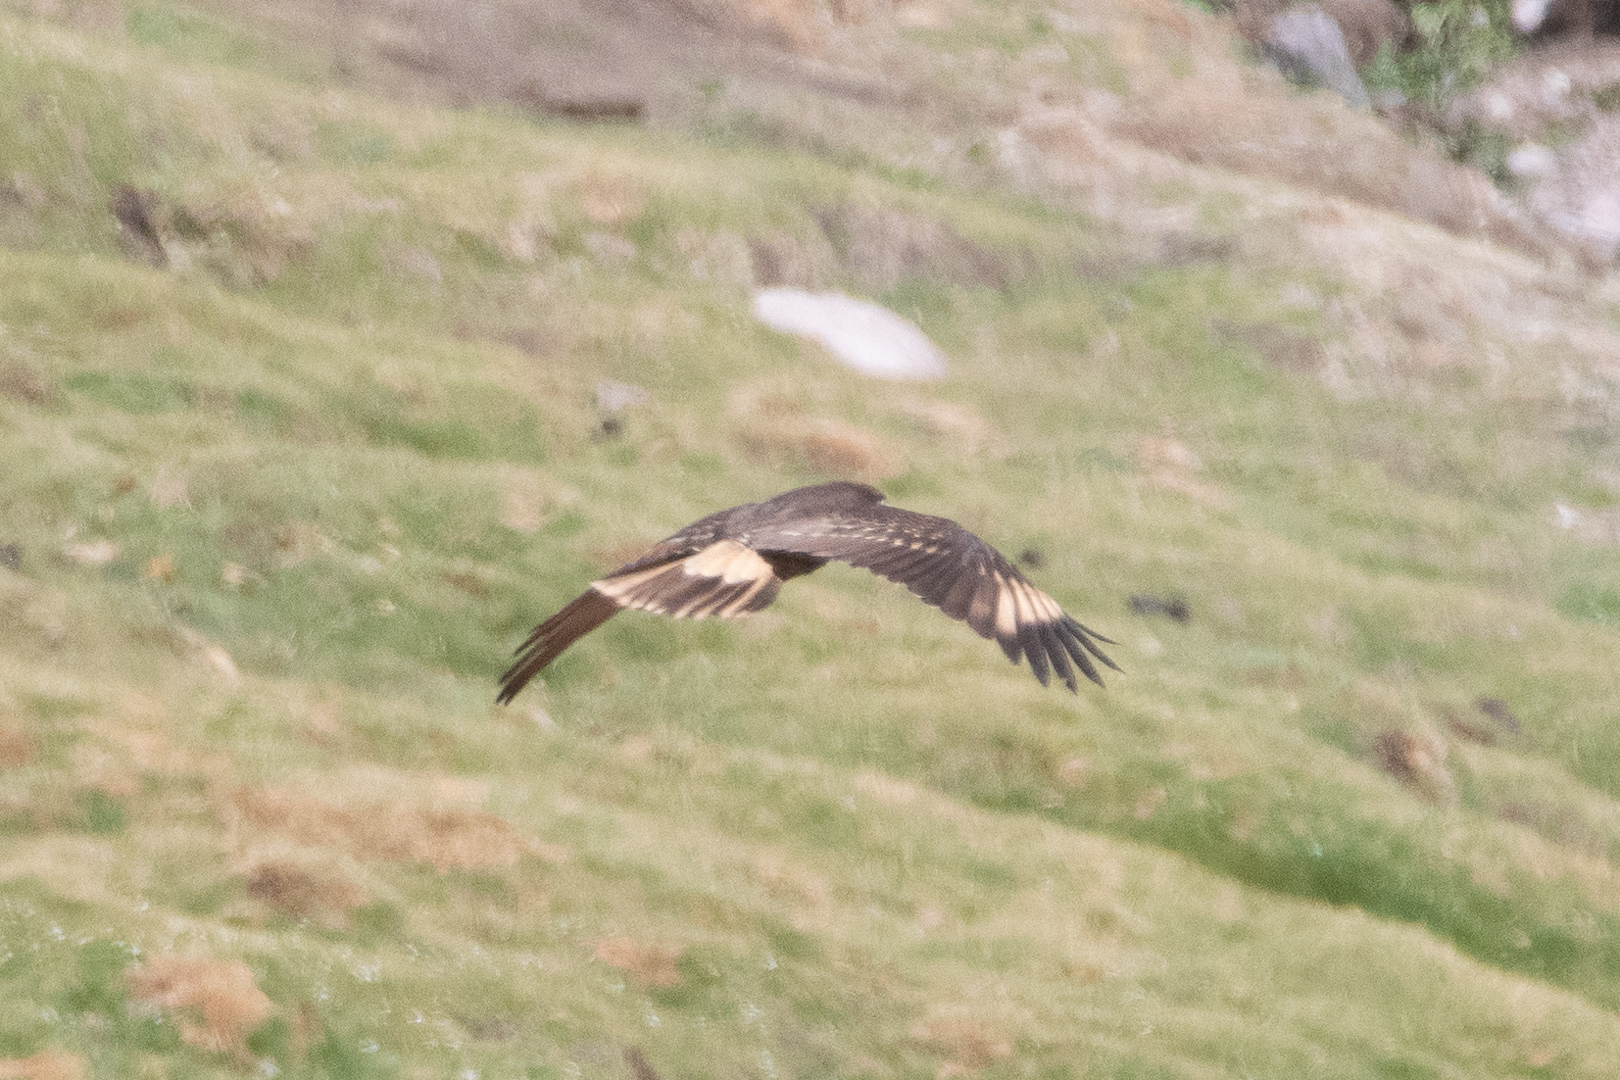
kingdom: Animalia
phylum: Chordata
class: Aves
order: Falconiformes
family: Falconidae
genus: Daptrius
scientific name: Daptrius
